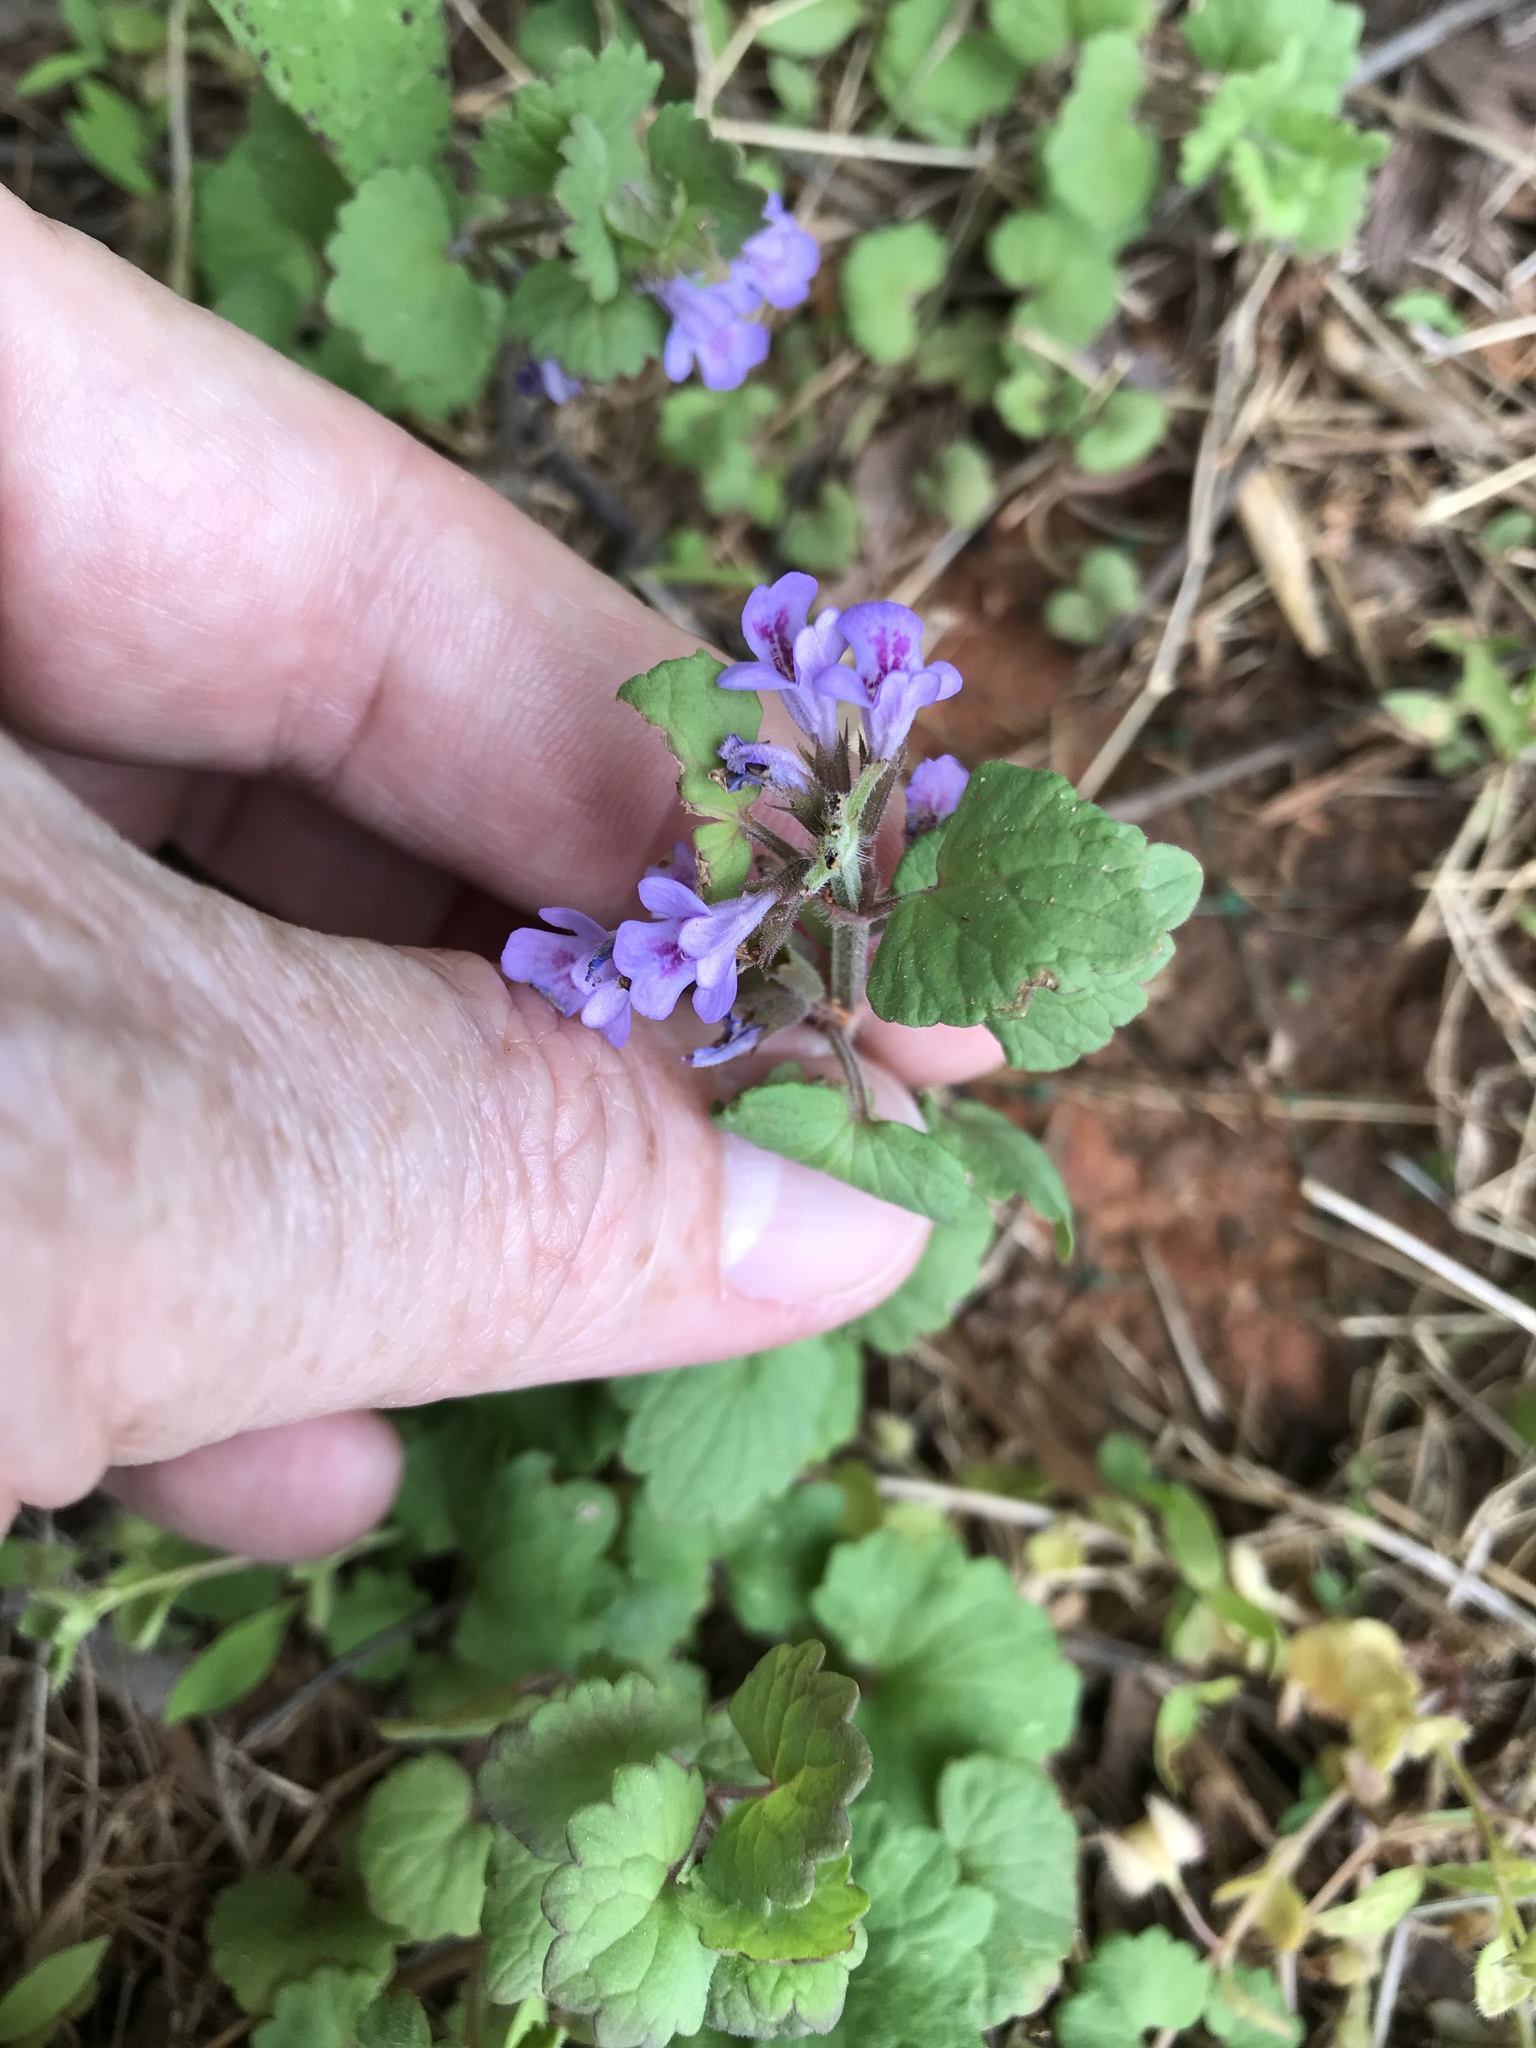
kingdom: Plantae
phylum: Tracheophyta
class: Magnoliopsida
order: Lamiales
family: Lamiaceae
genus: Glechoma
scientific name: Glechoma hederacea
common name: Ground ivy
